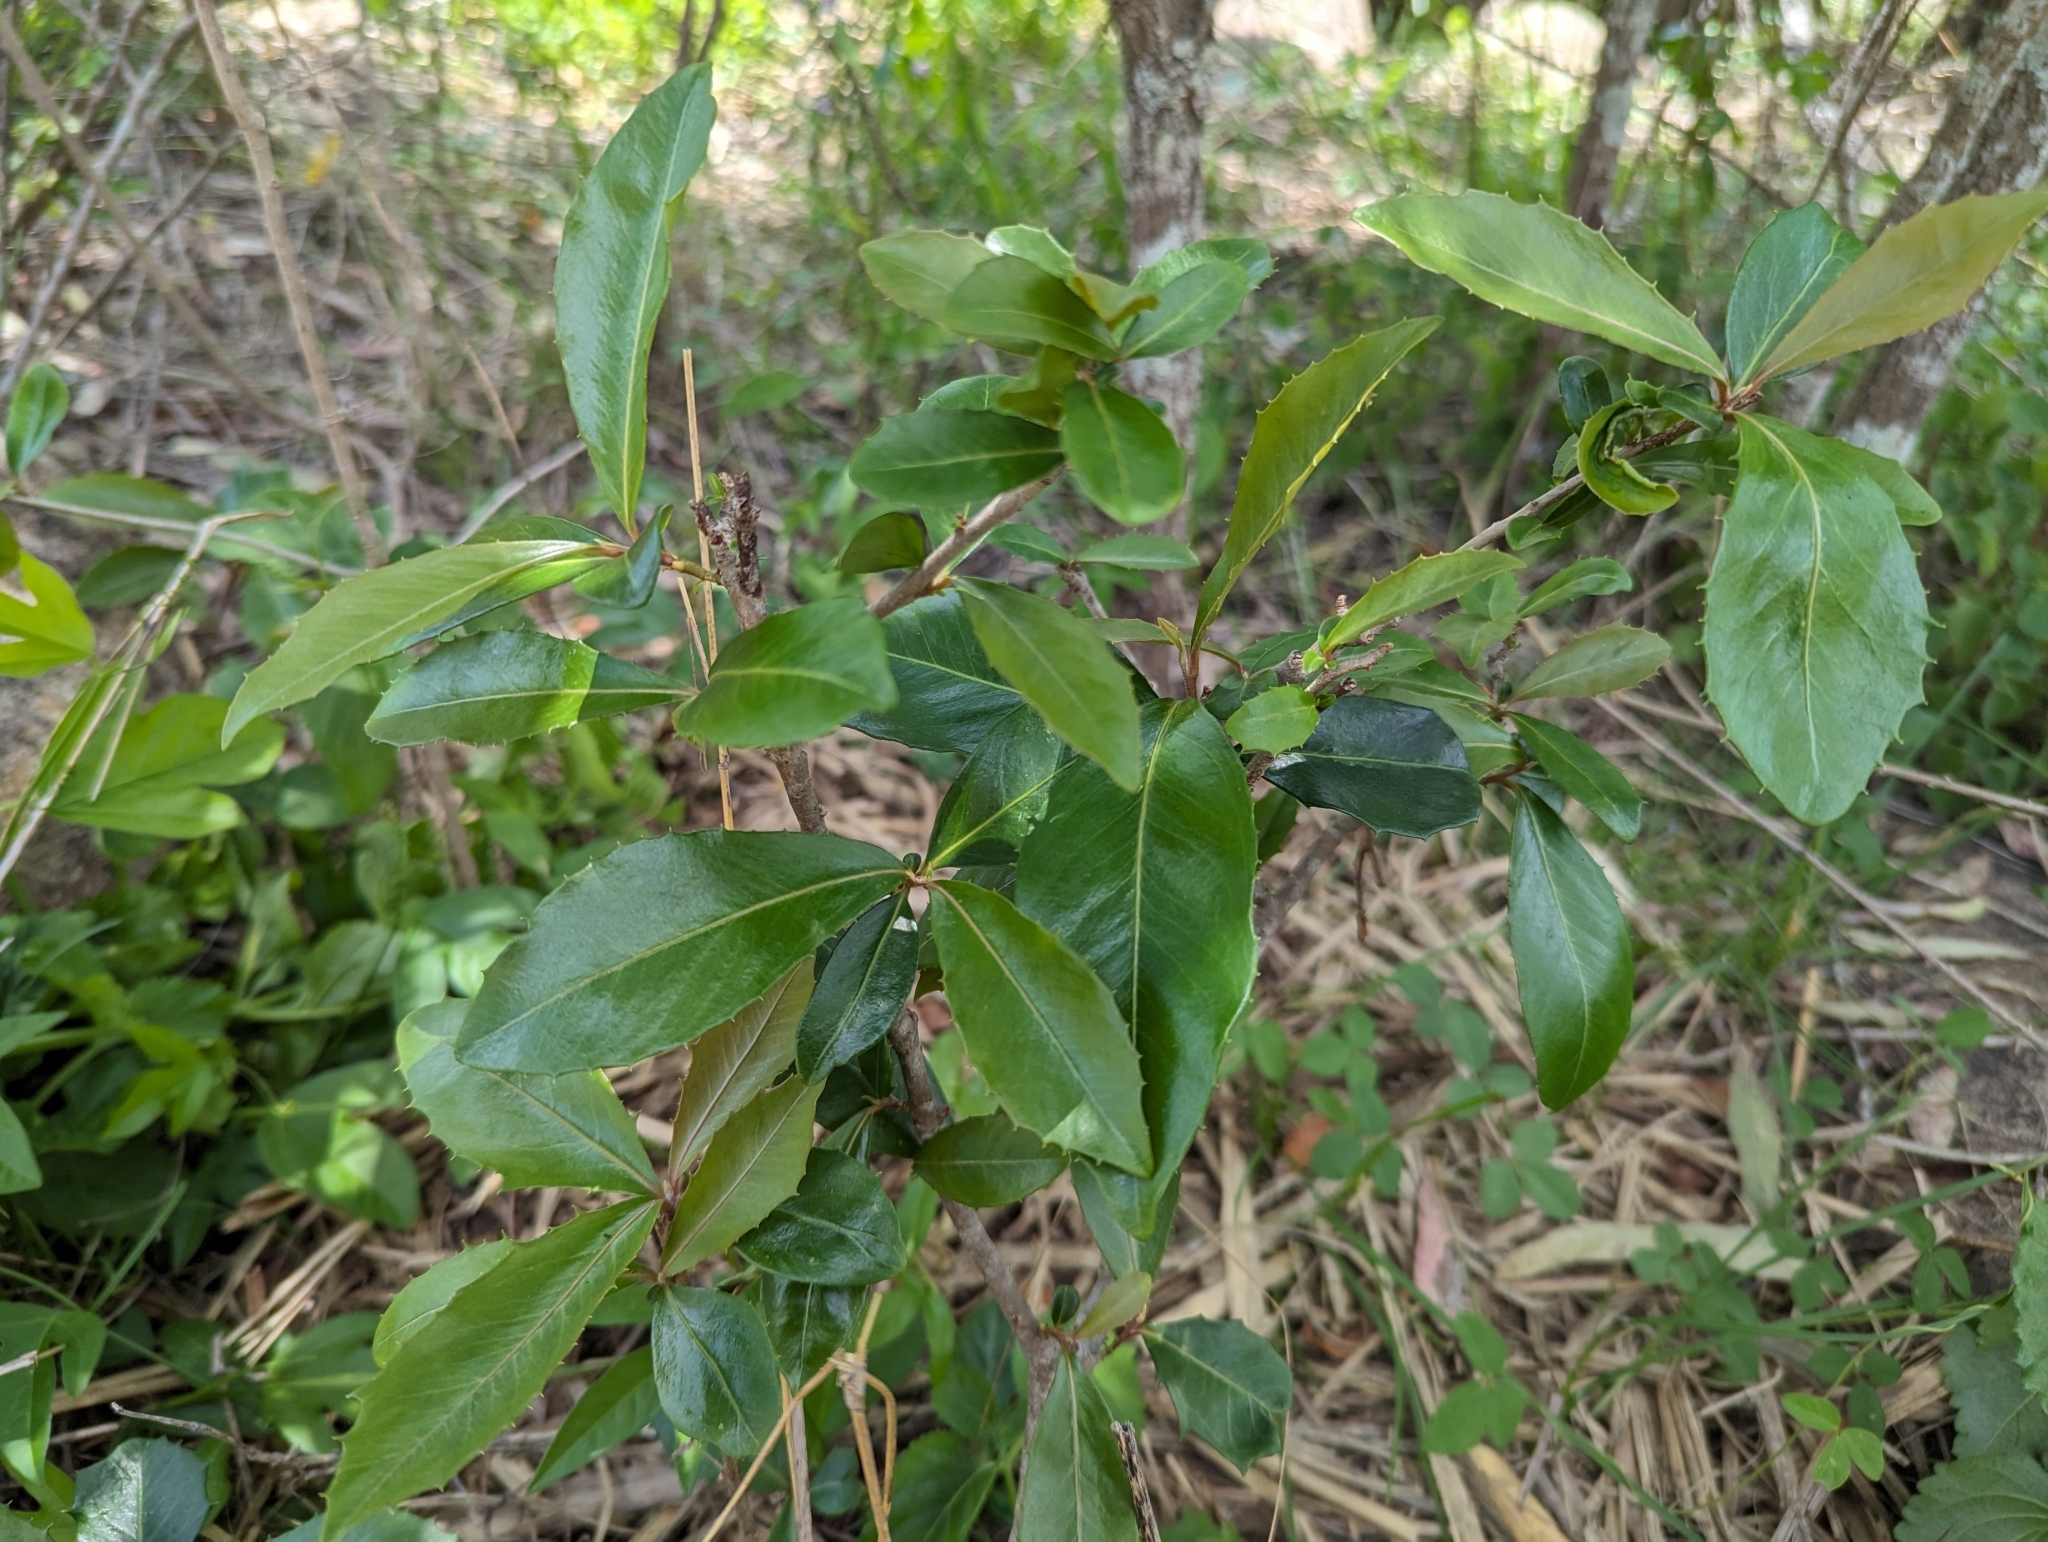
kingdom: Plantae
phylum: Tracheophyta
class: Magnoliopsida
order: Ericales
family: Primulaceae
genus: Myrsine
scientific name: Myrsine variabilis
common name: Brush muttonwood
